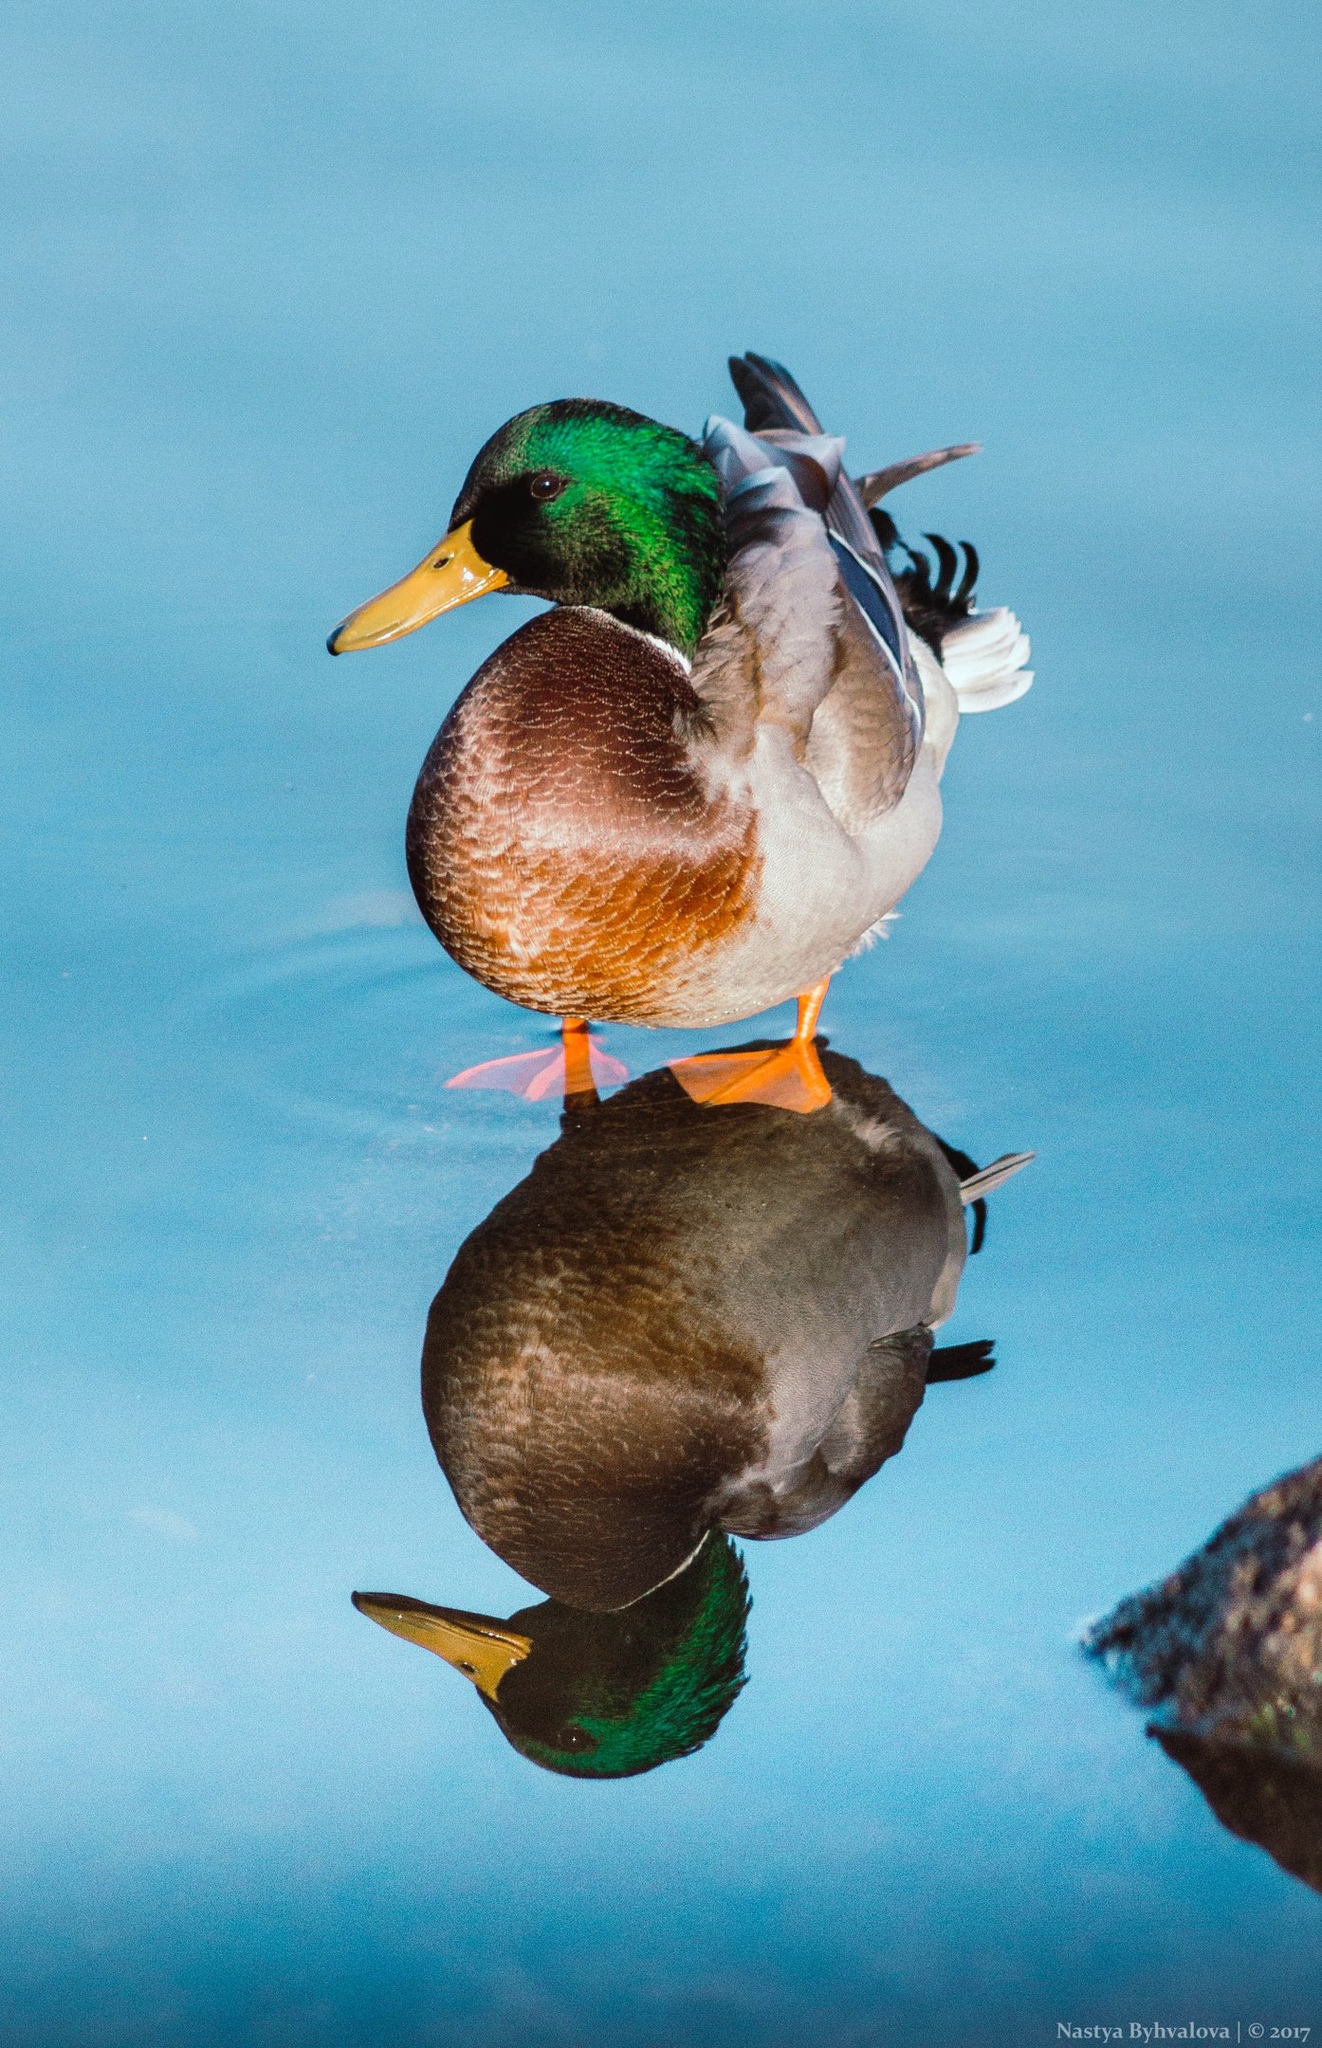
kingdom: Animalia
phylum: Chordata
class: Aves
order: Anseriformes
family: Anatidae
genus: Anas
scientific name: Anas platyrhynchos
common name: Mallard
